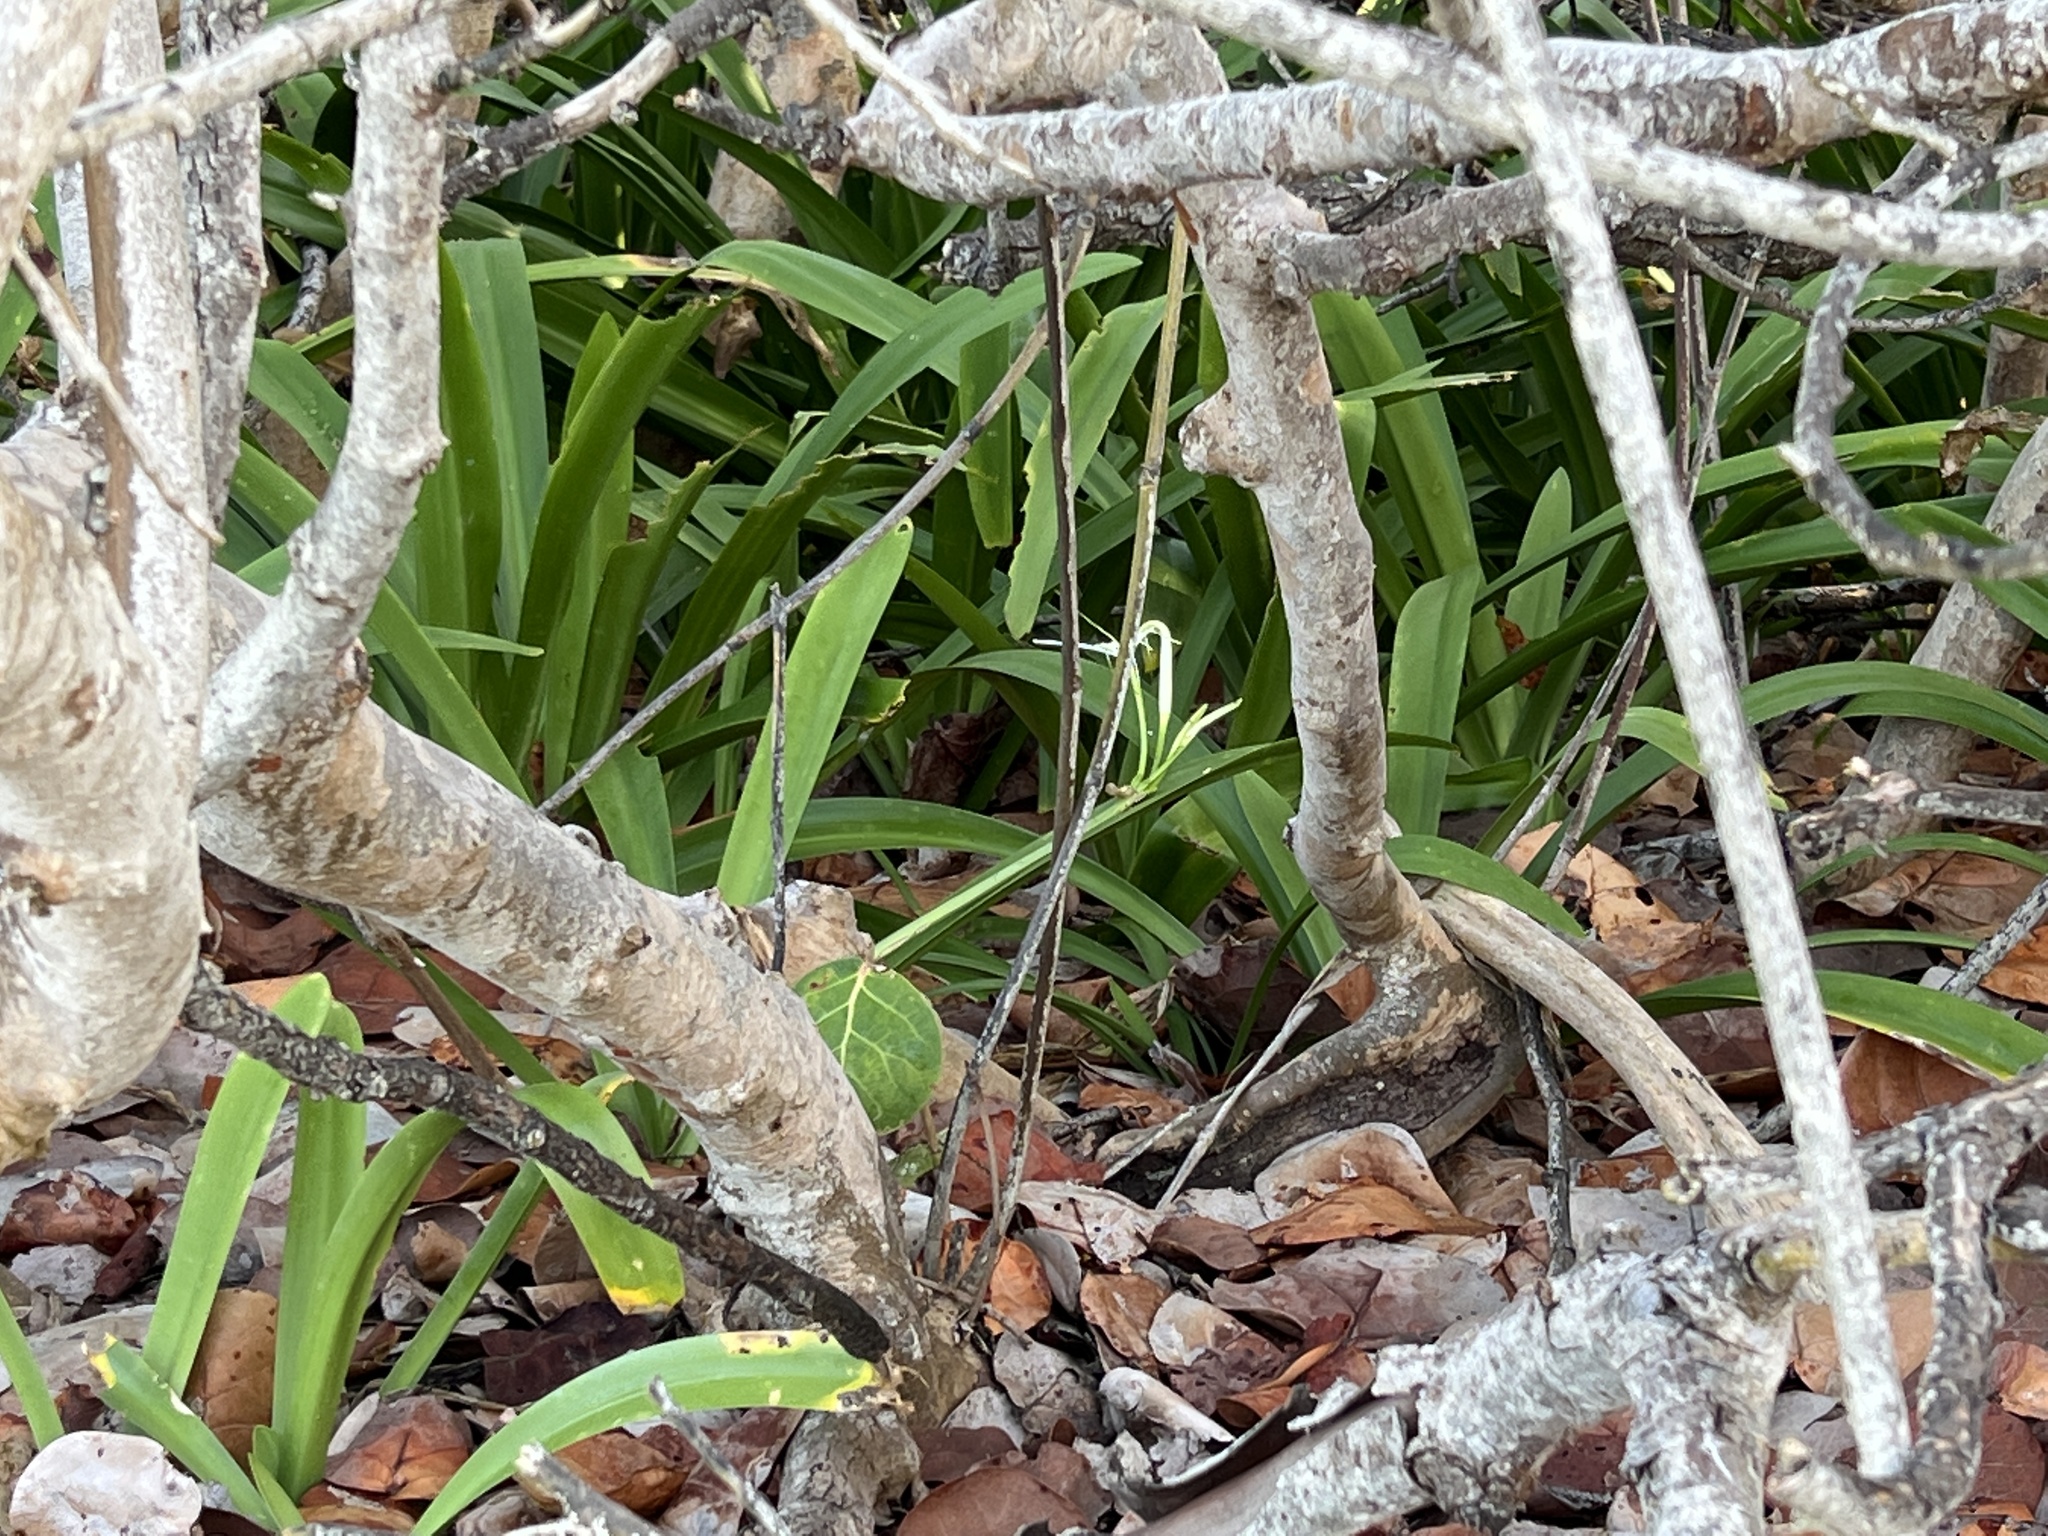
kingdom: Plantae
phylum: Tracheophyta
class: Liliopsida
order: Asparagales
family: Amaryllidaceae
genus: Hymenocallis
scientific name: Hymenocallis latifolia
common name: Cayman islands spider-lily
